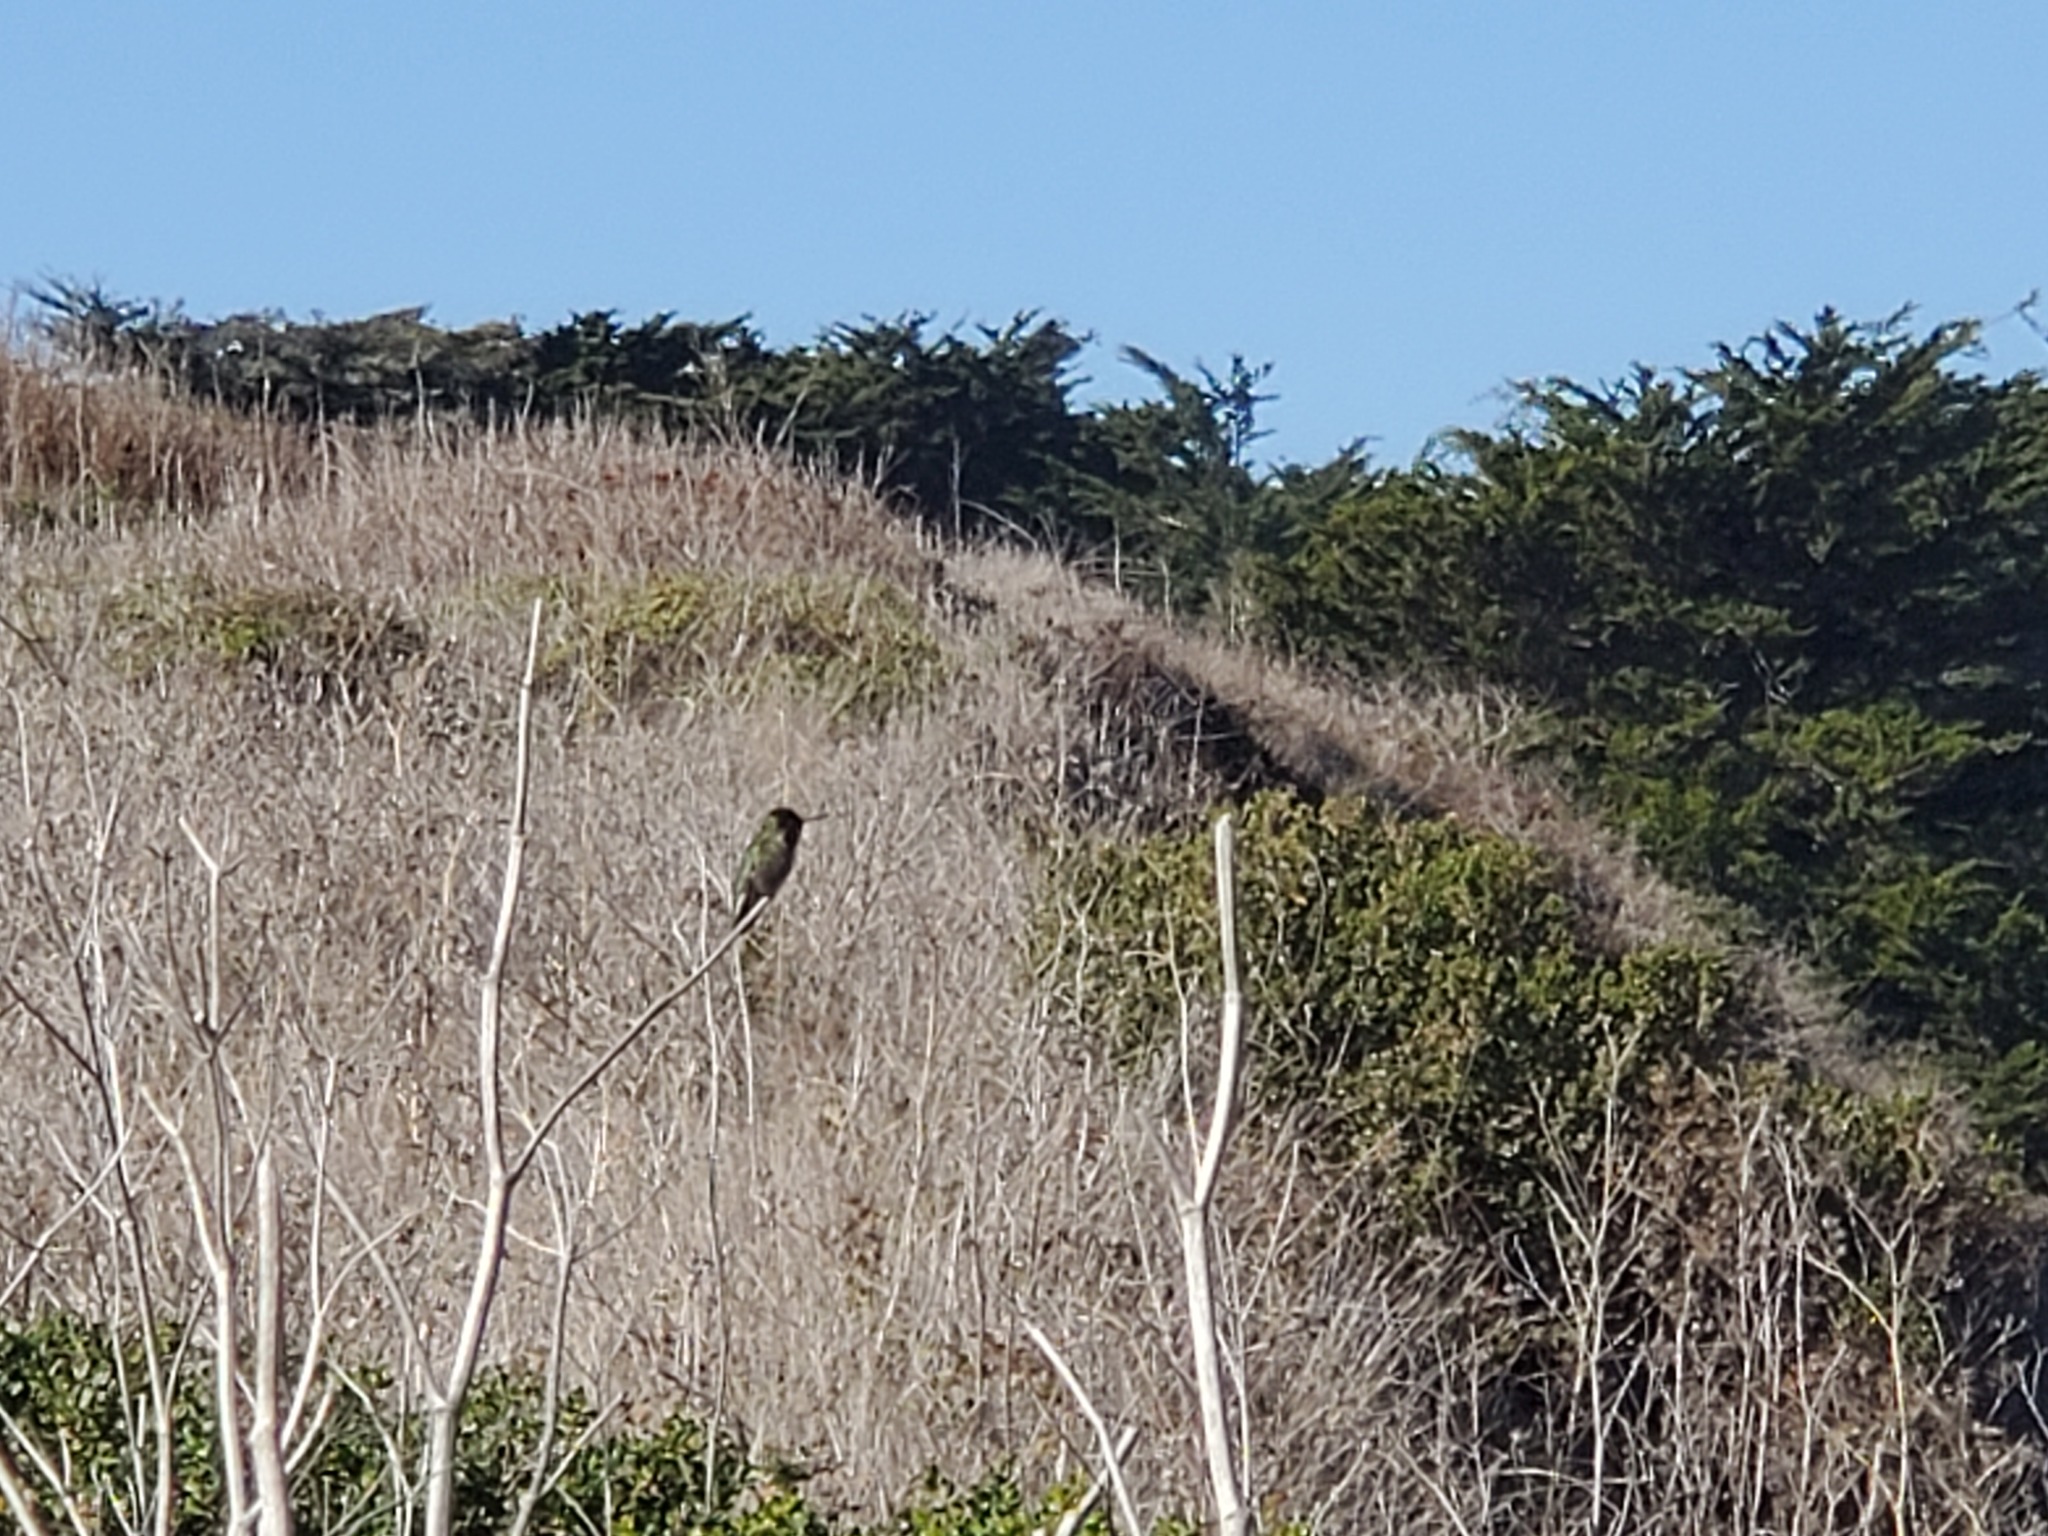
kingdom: Animalia
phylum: Chordata
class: Aves
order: Apodiformes
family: Trochilidae
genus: Calypte
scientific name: Calypte anna
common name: Anna's hummingbird
